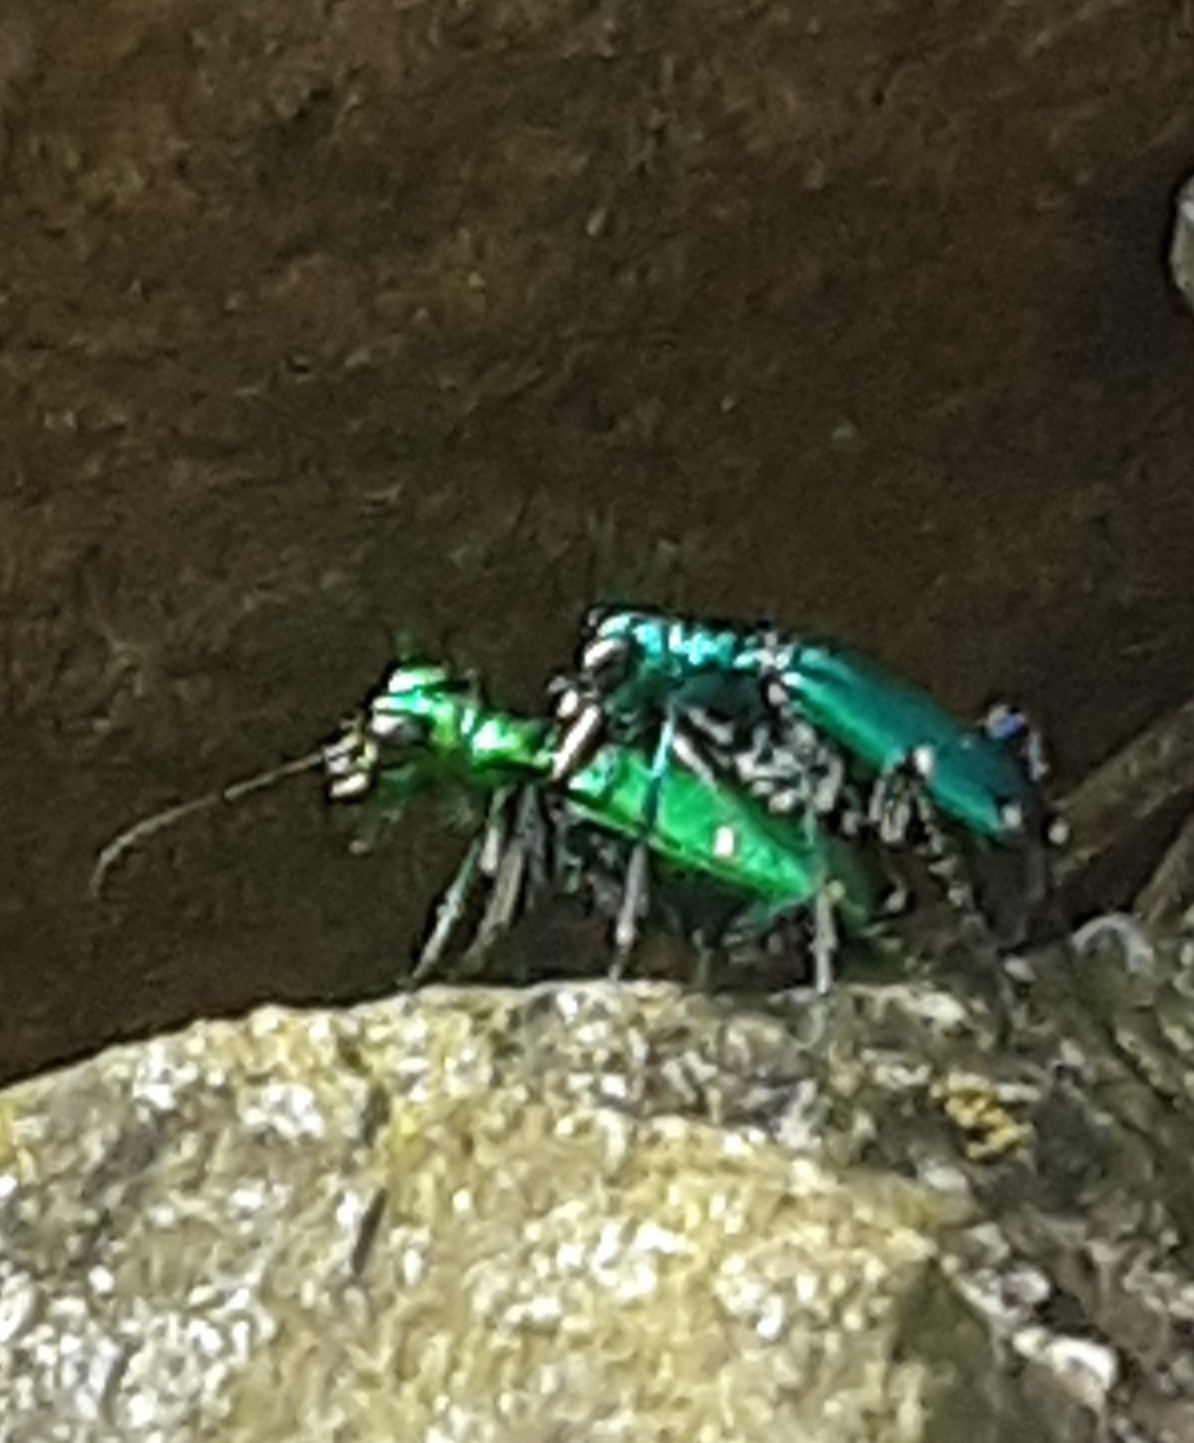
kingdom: Animalia
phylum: Arthropoda
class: Insecta
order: Coleoptera
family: Carabidae
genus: Cicindela
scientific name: Cicindela sexguttata
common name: Six-spotted tiger beetle
